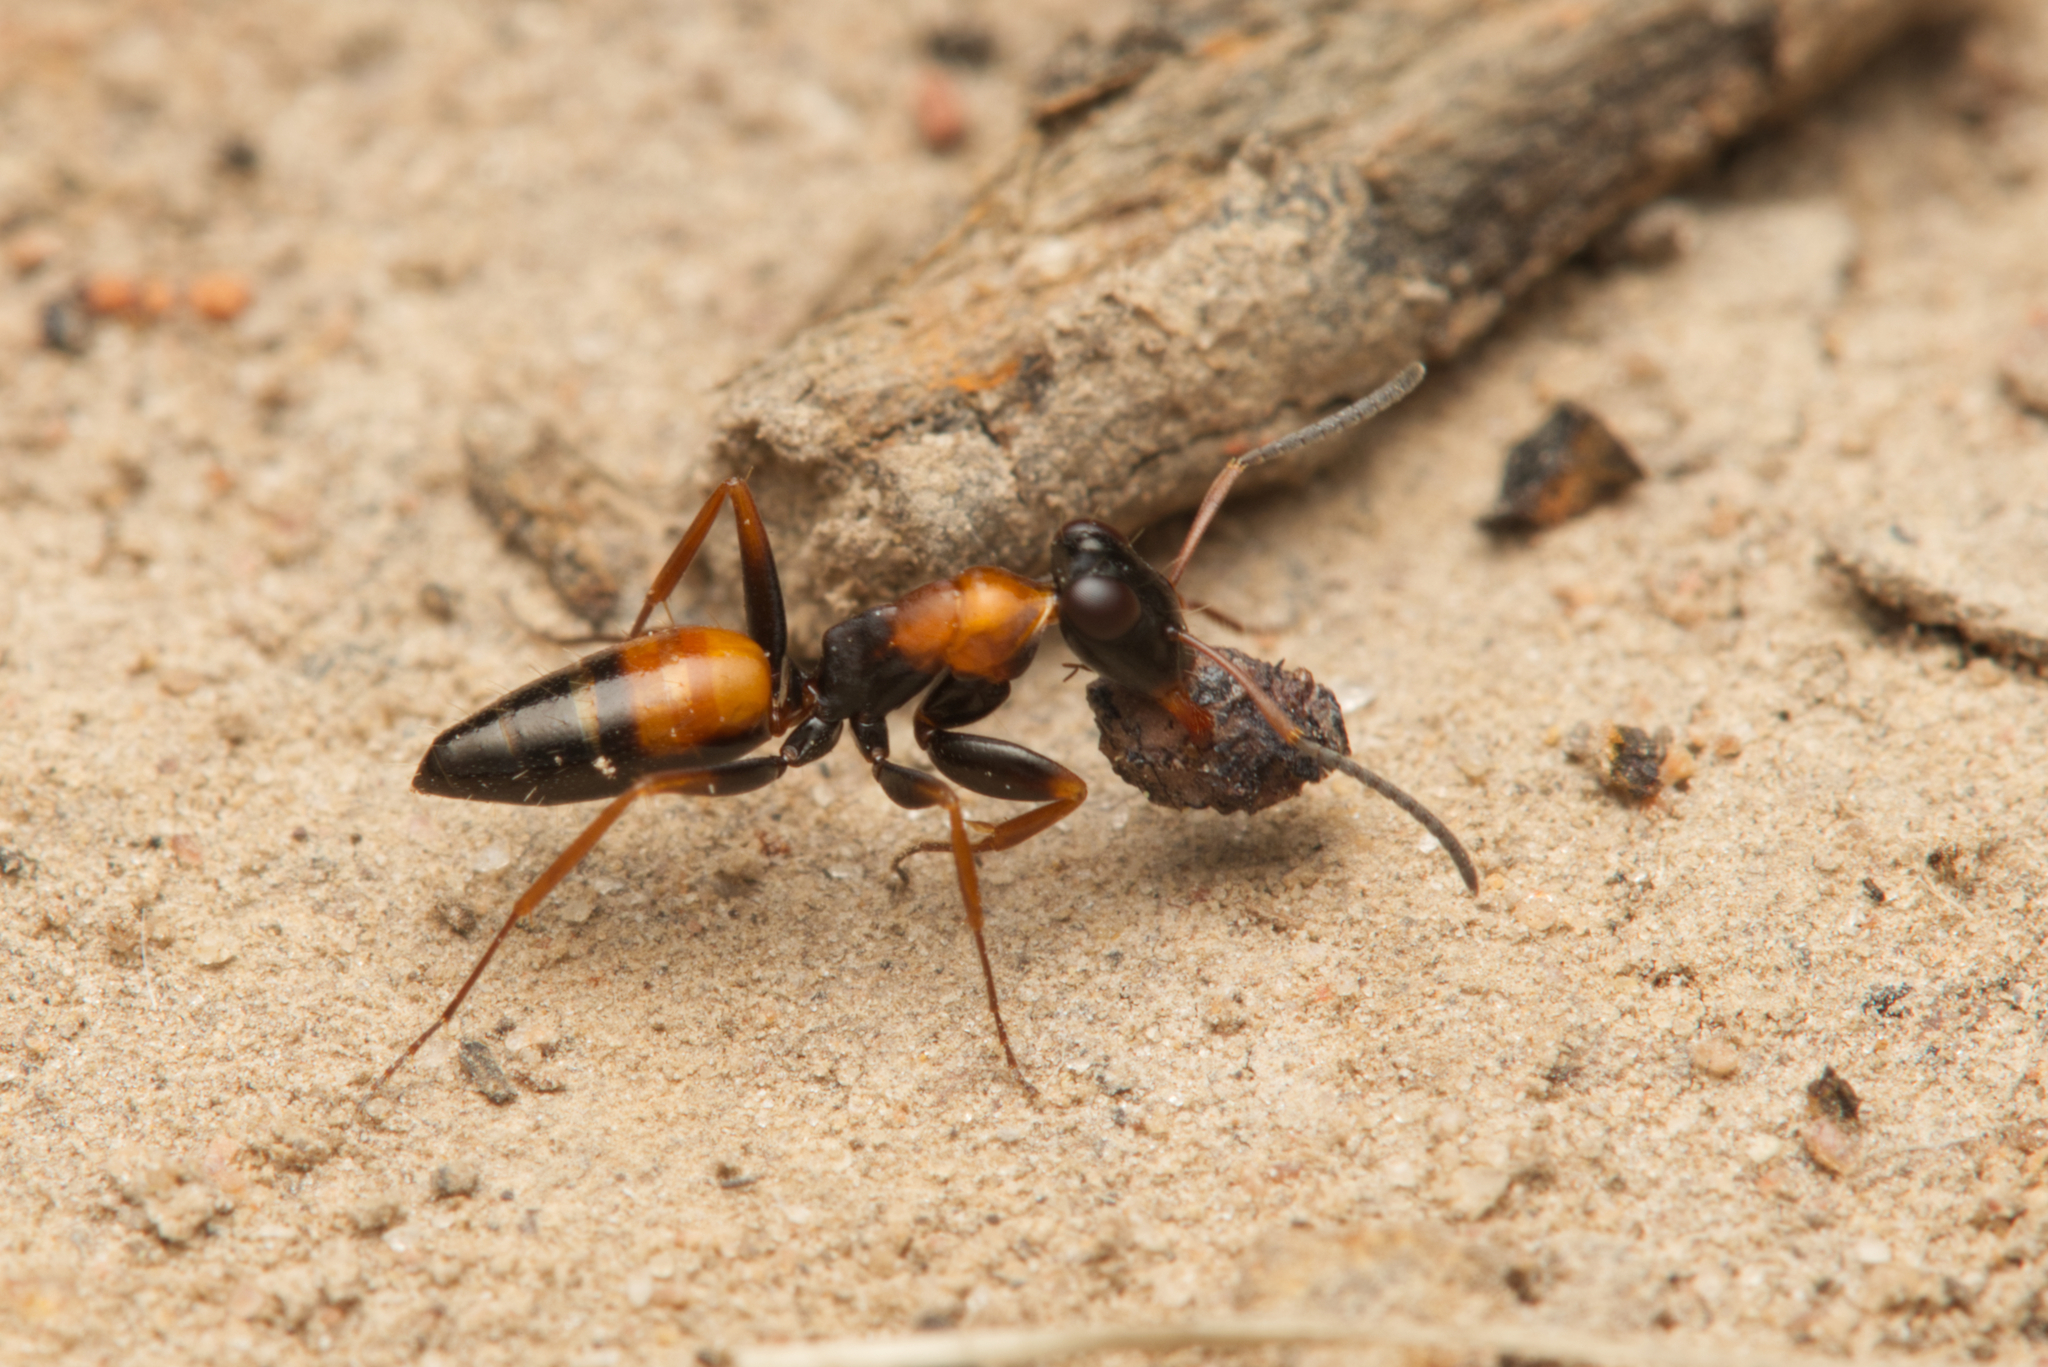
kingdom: Animalia
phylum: Arthropoda
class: Insecta
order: Hymenoptera
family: Formicidae
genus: Opisthopsis
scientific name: Opisthopsis pictus
